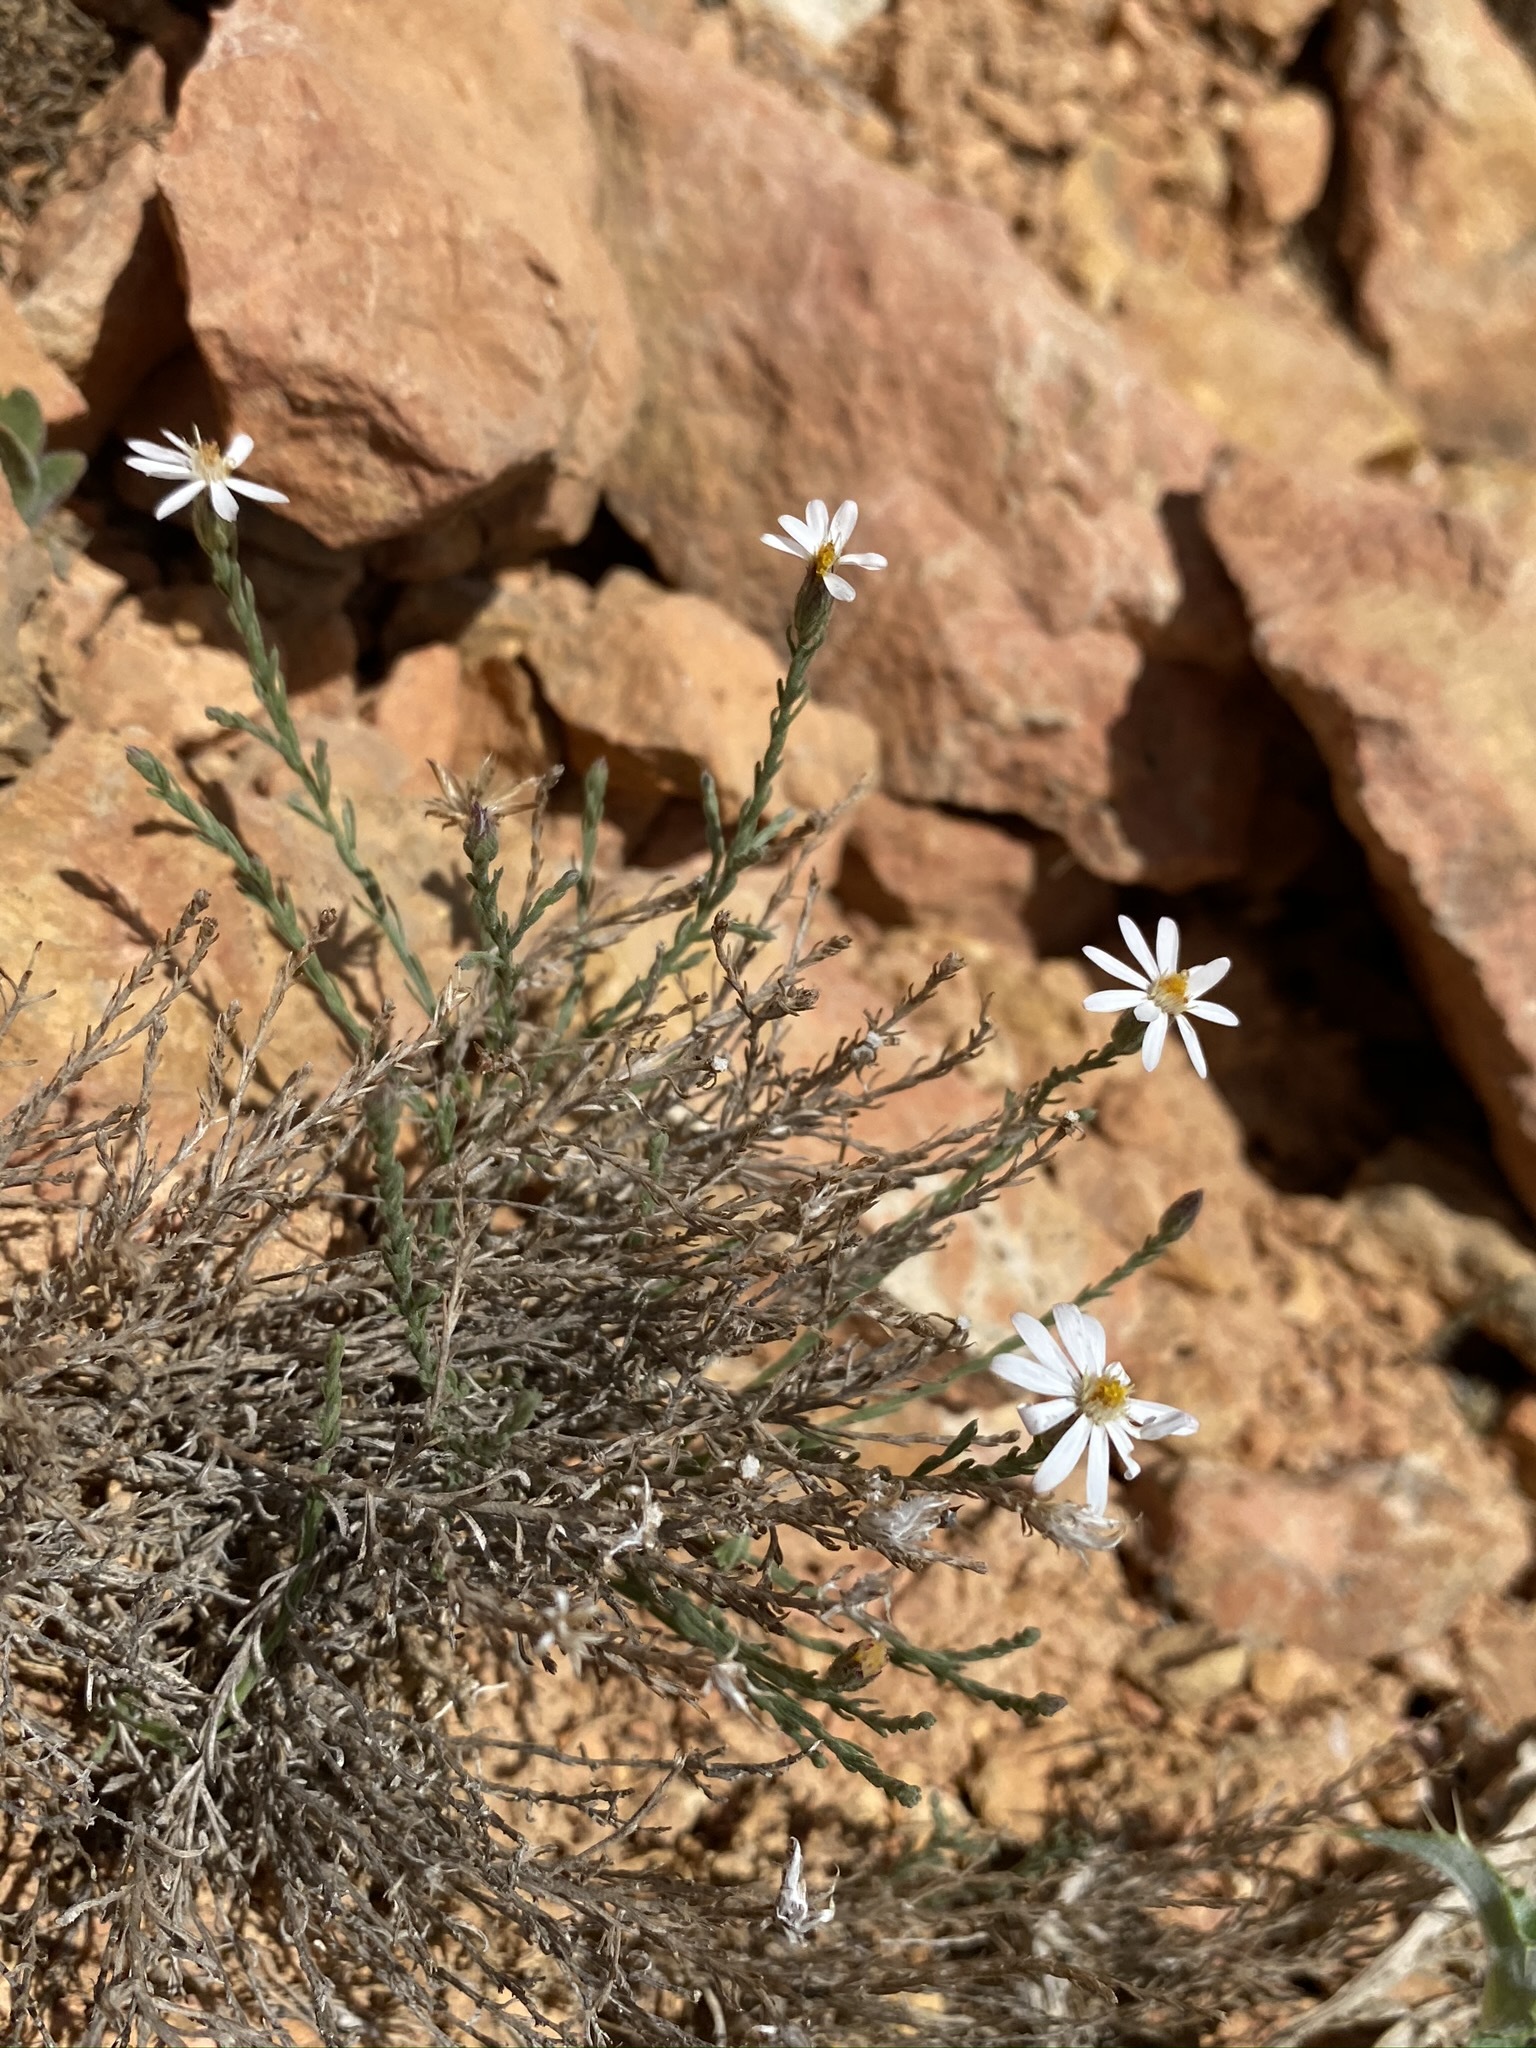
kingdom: Plantae
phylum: Tracheophyta
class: Magnoliopsida
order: Asterales
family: Asteraceae
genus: Chaetopappa
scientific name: Chaetopappa ericoides
